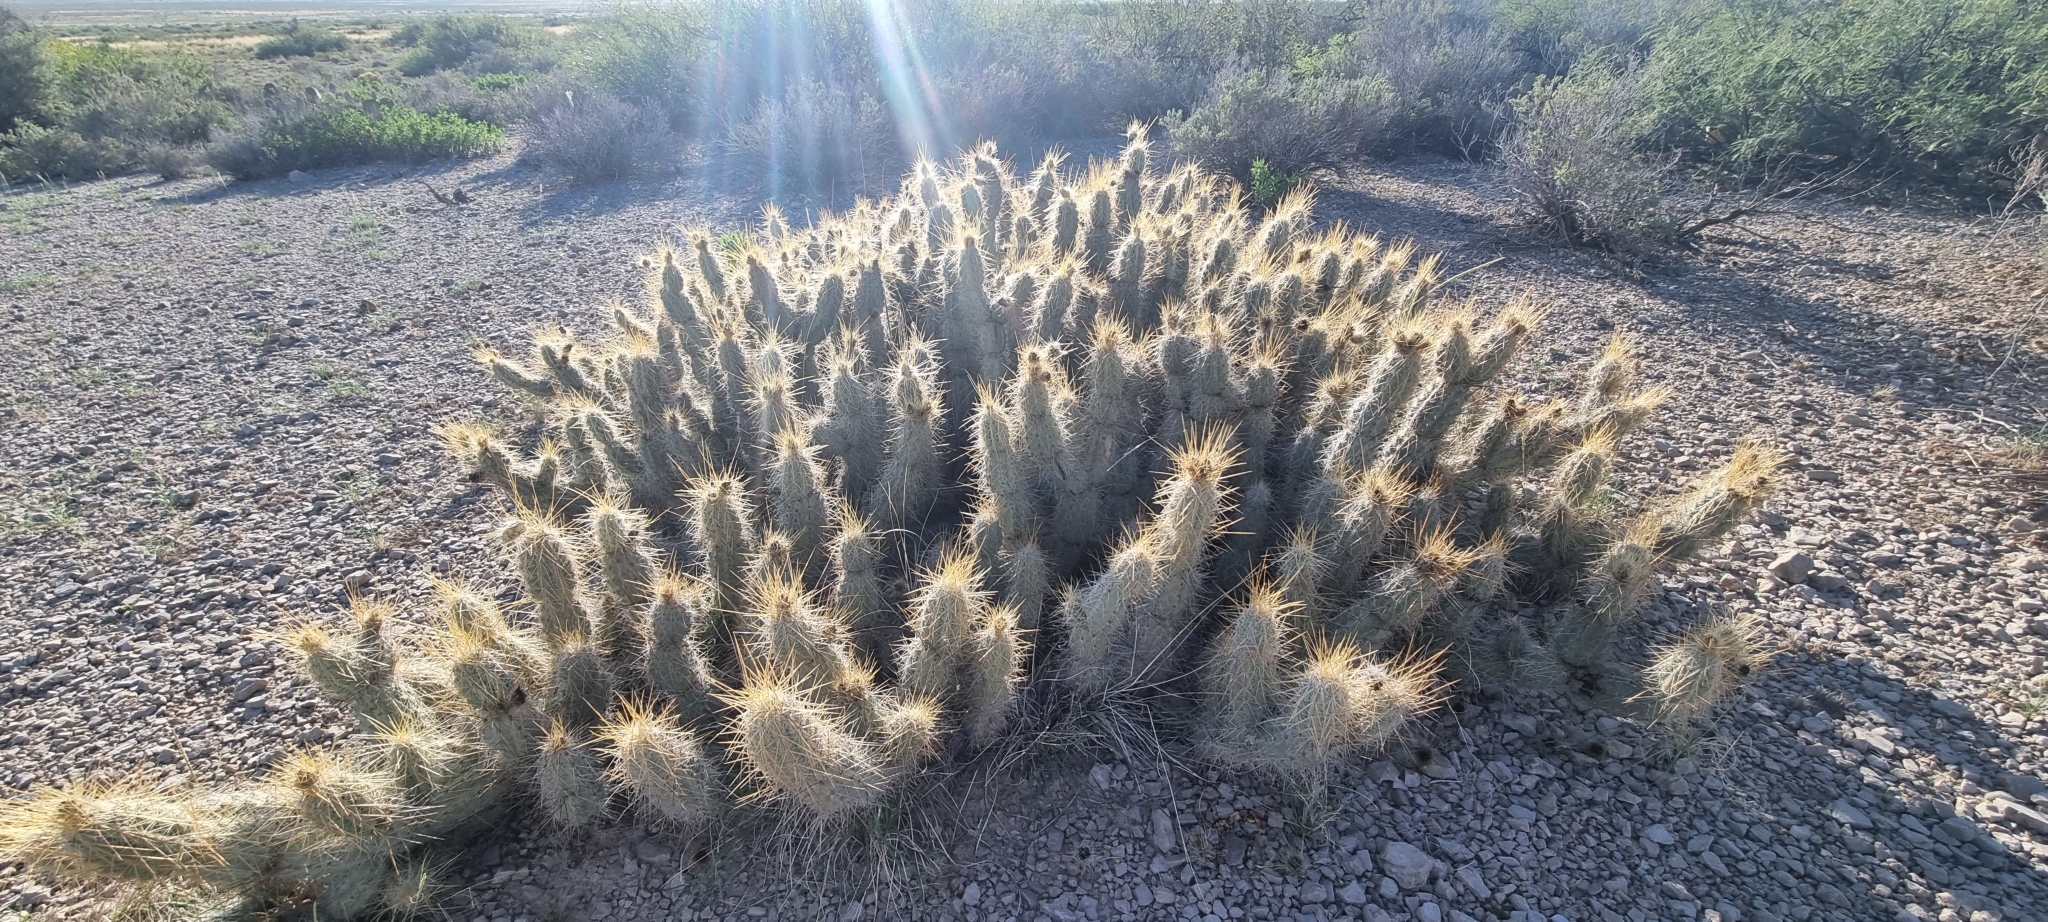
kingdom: Plantae
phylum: Tracheophyta
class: Magnoliopsida
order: Caryophyllales
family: Cactaceae
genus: Grusonia
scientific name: Grusonia bradtiana
